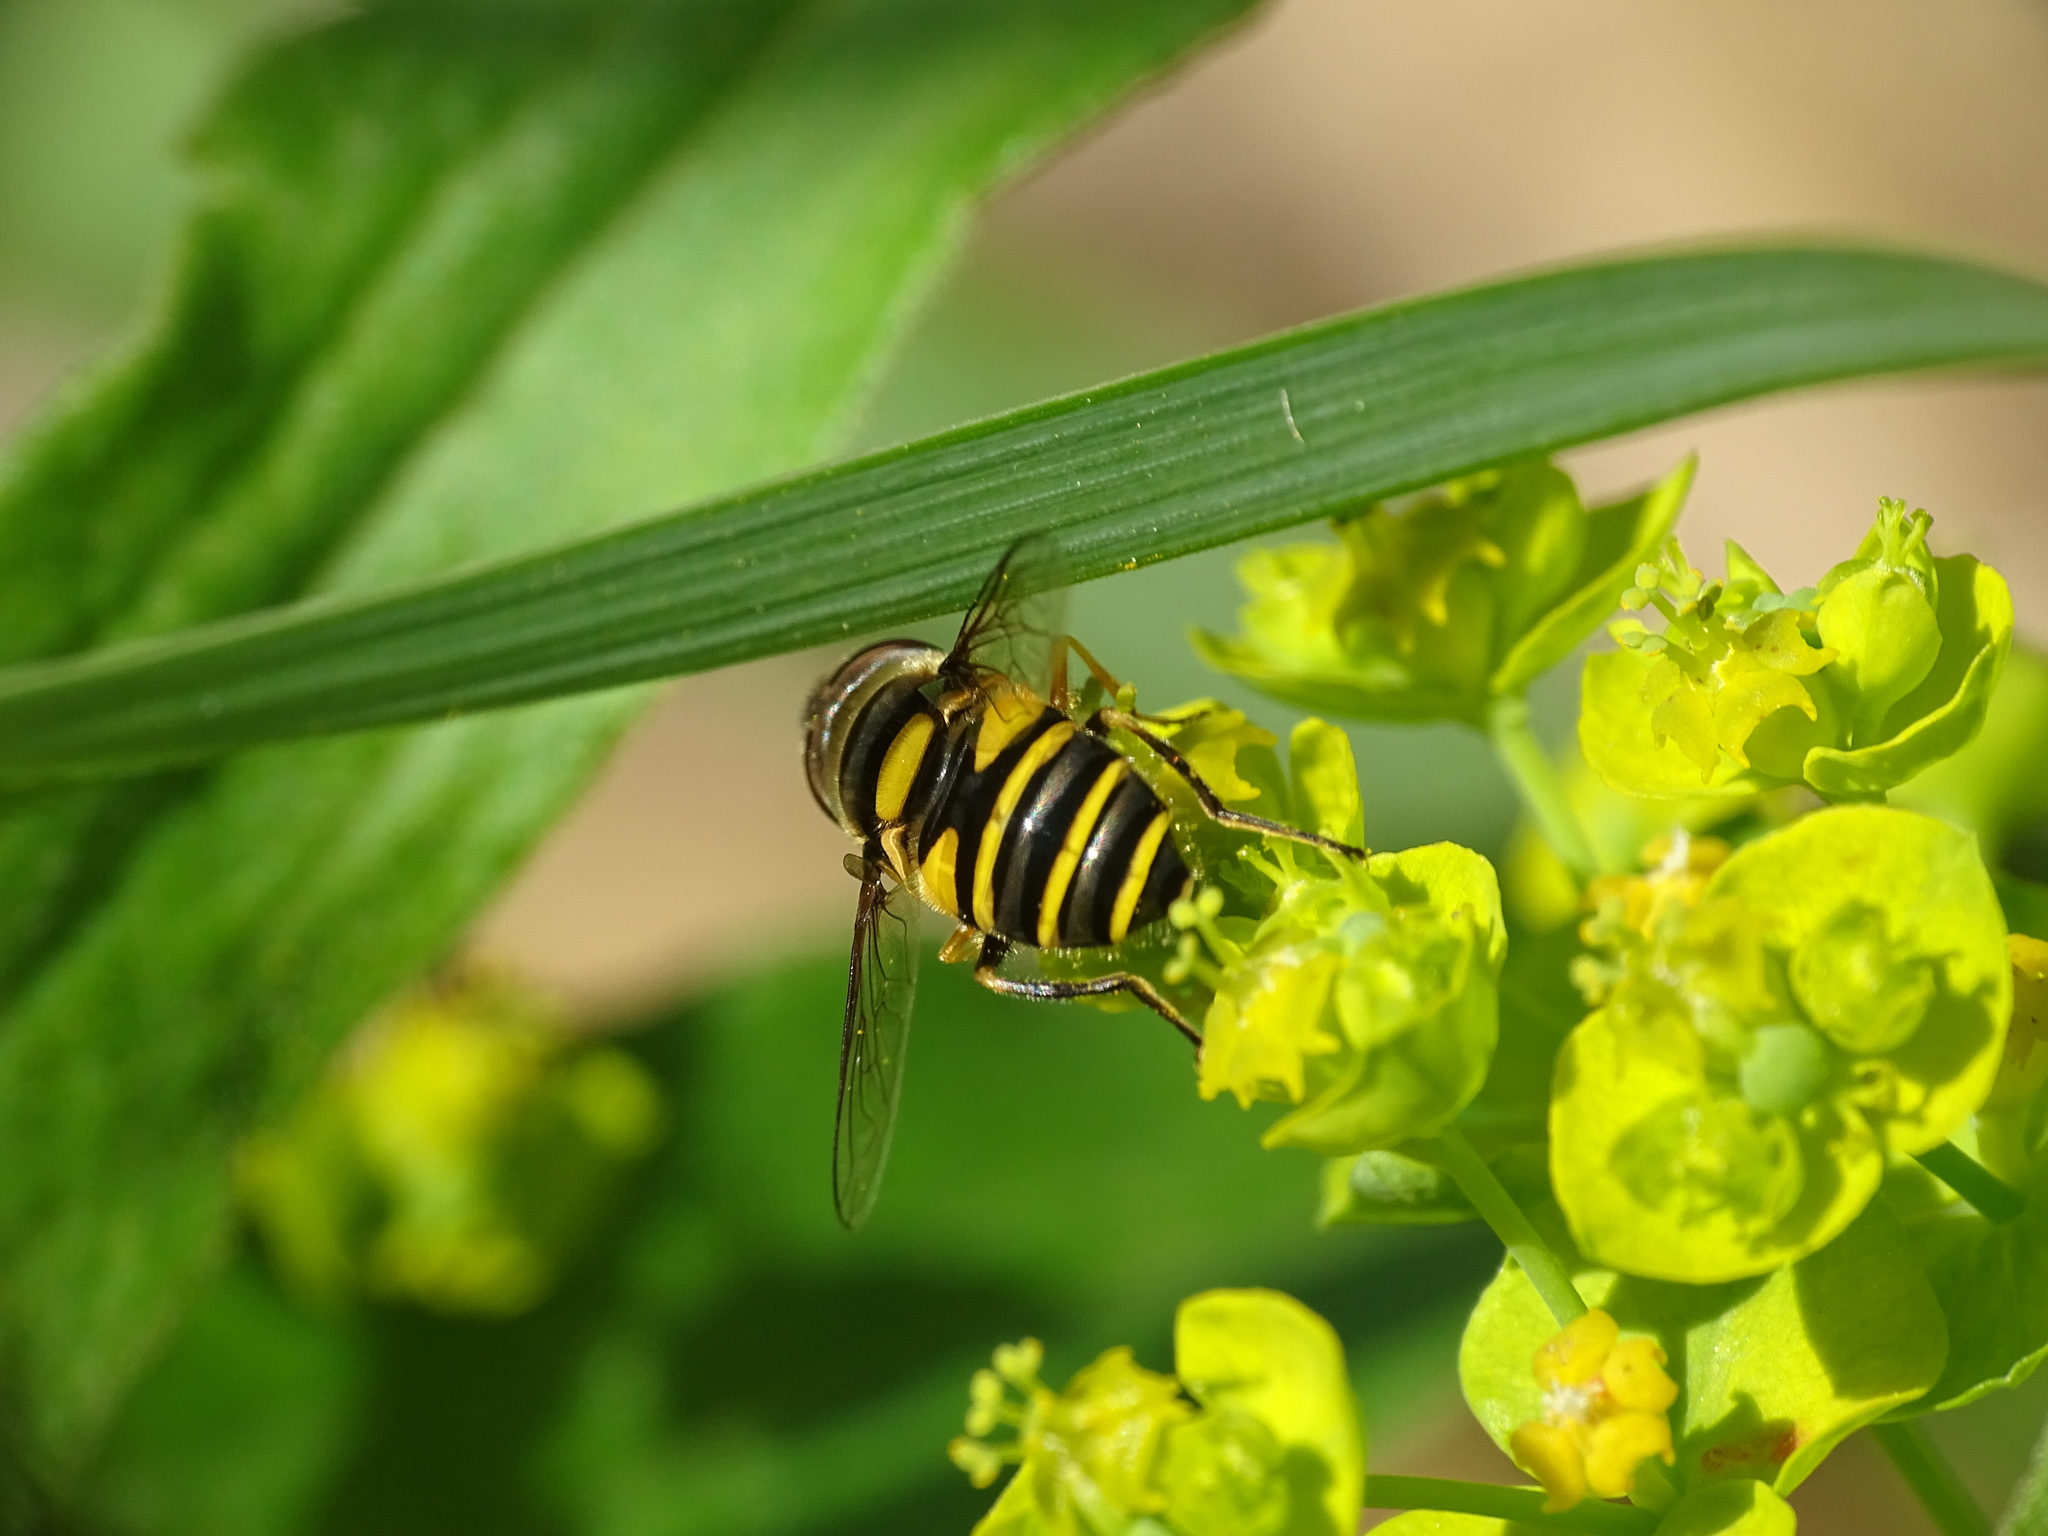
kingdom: Animalia
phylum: Arthropoda
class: Insecta
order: Diptera
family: Syrphidae
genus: Eristalis
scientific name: Eristalis transversa
